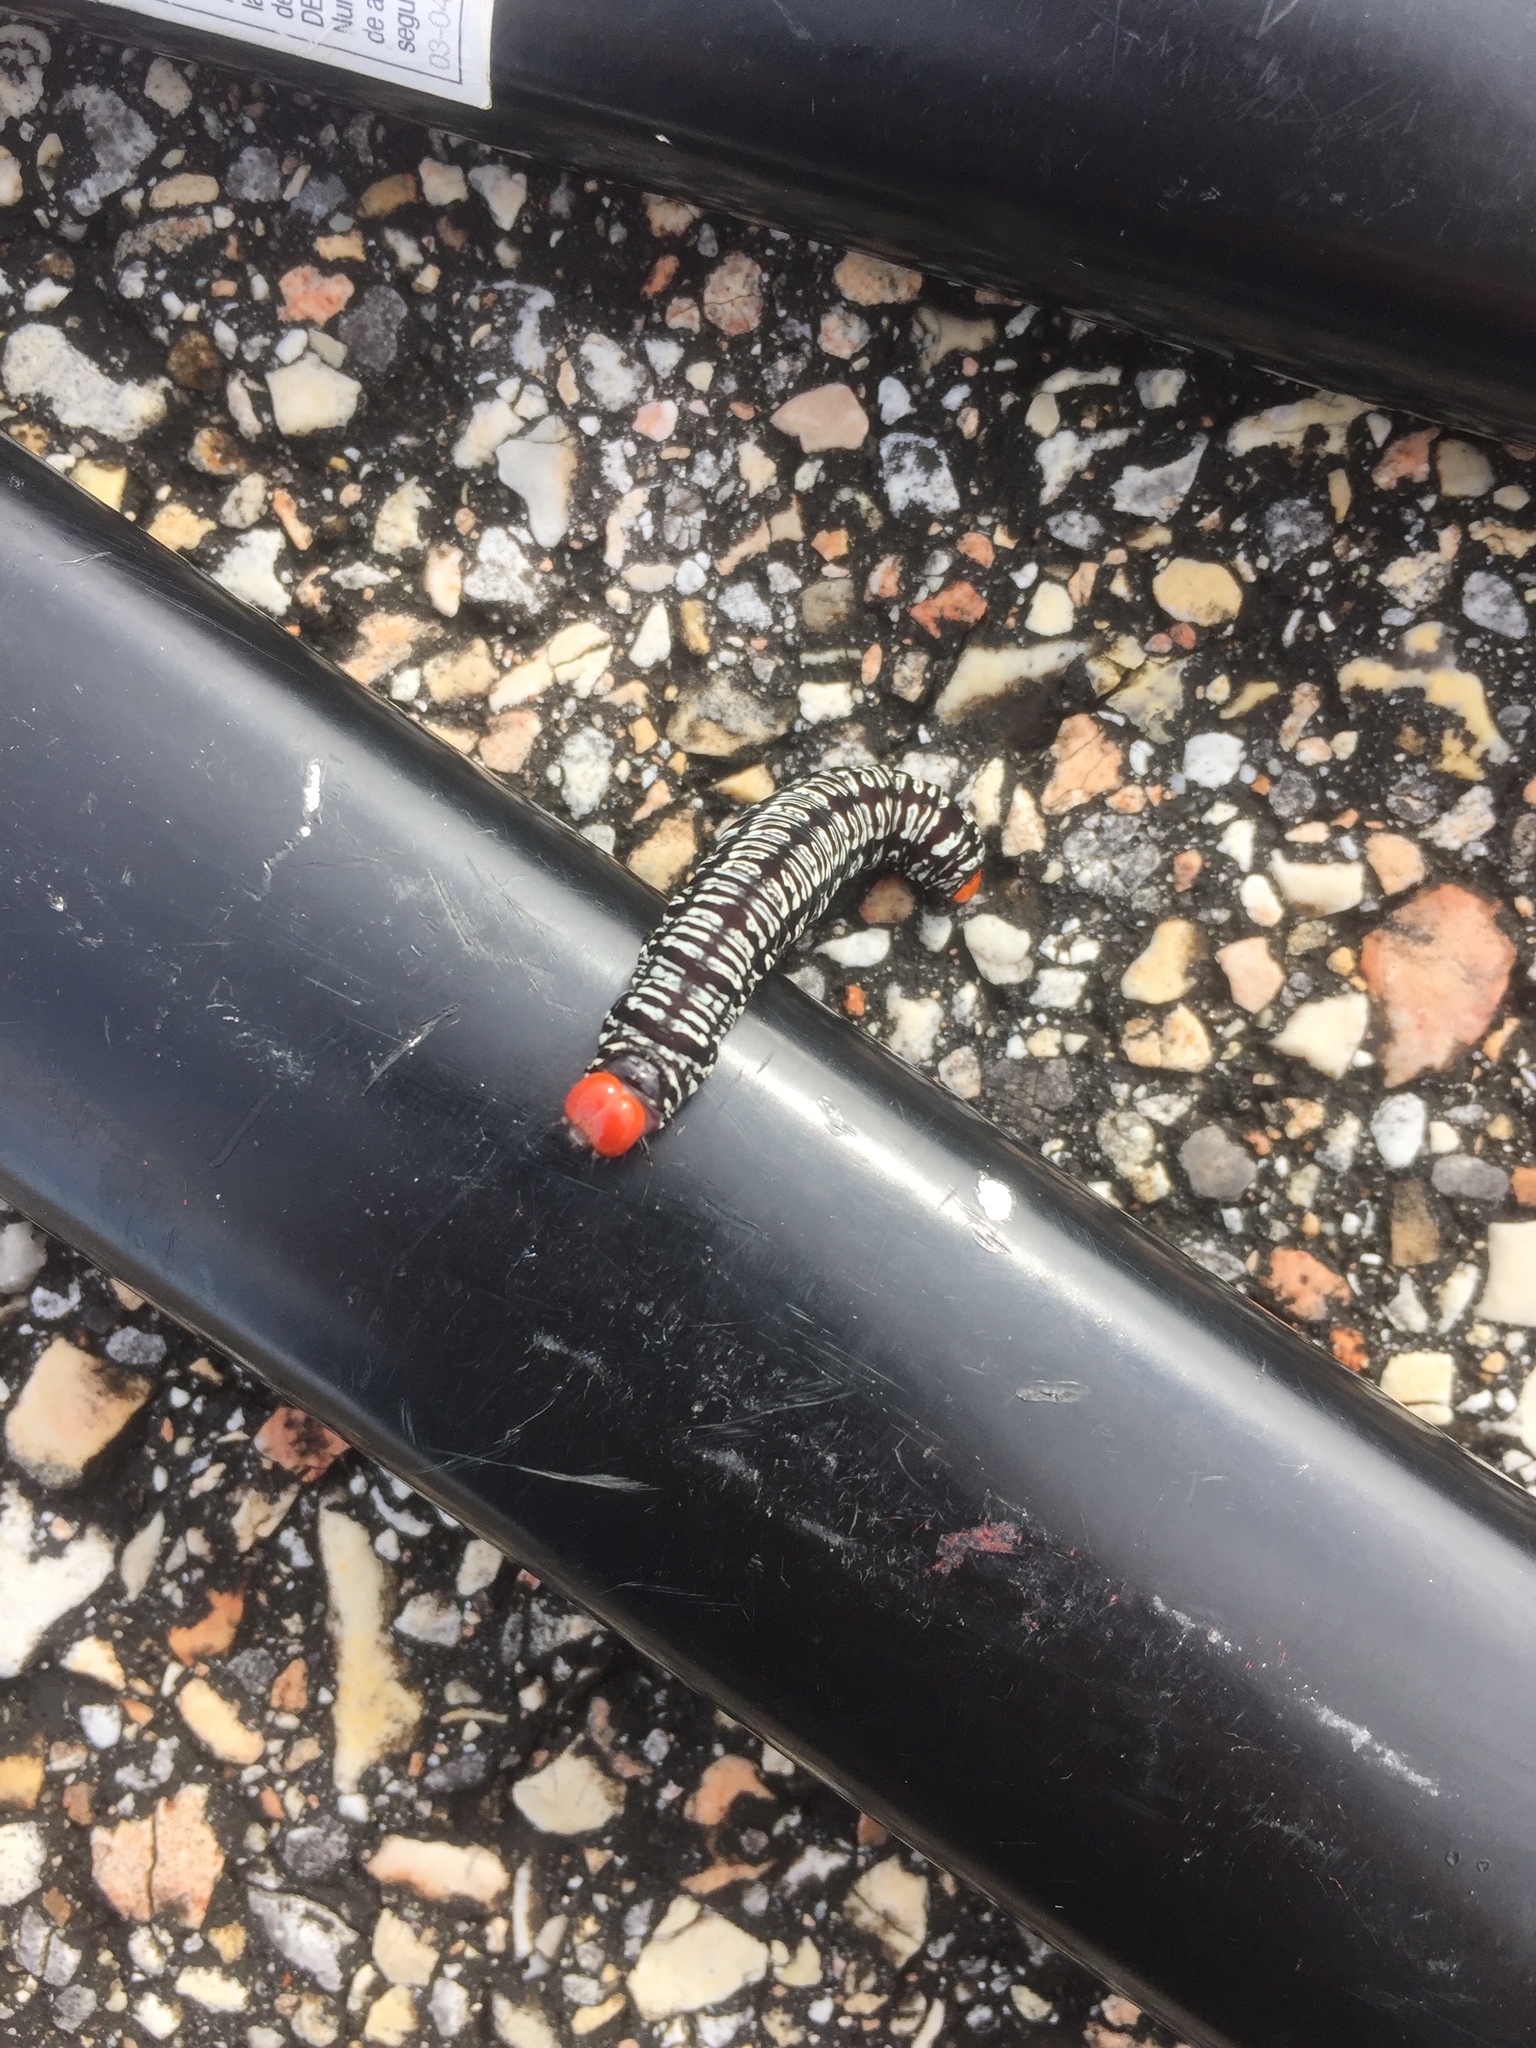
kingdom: Animalia
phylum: Arthropoda
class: Insecta
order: Lepidoptera
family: Erebidae
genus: Diphthera
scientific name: Diphthera festiva
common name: Hieroglyphic moth
